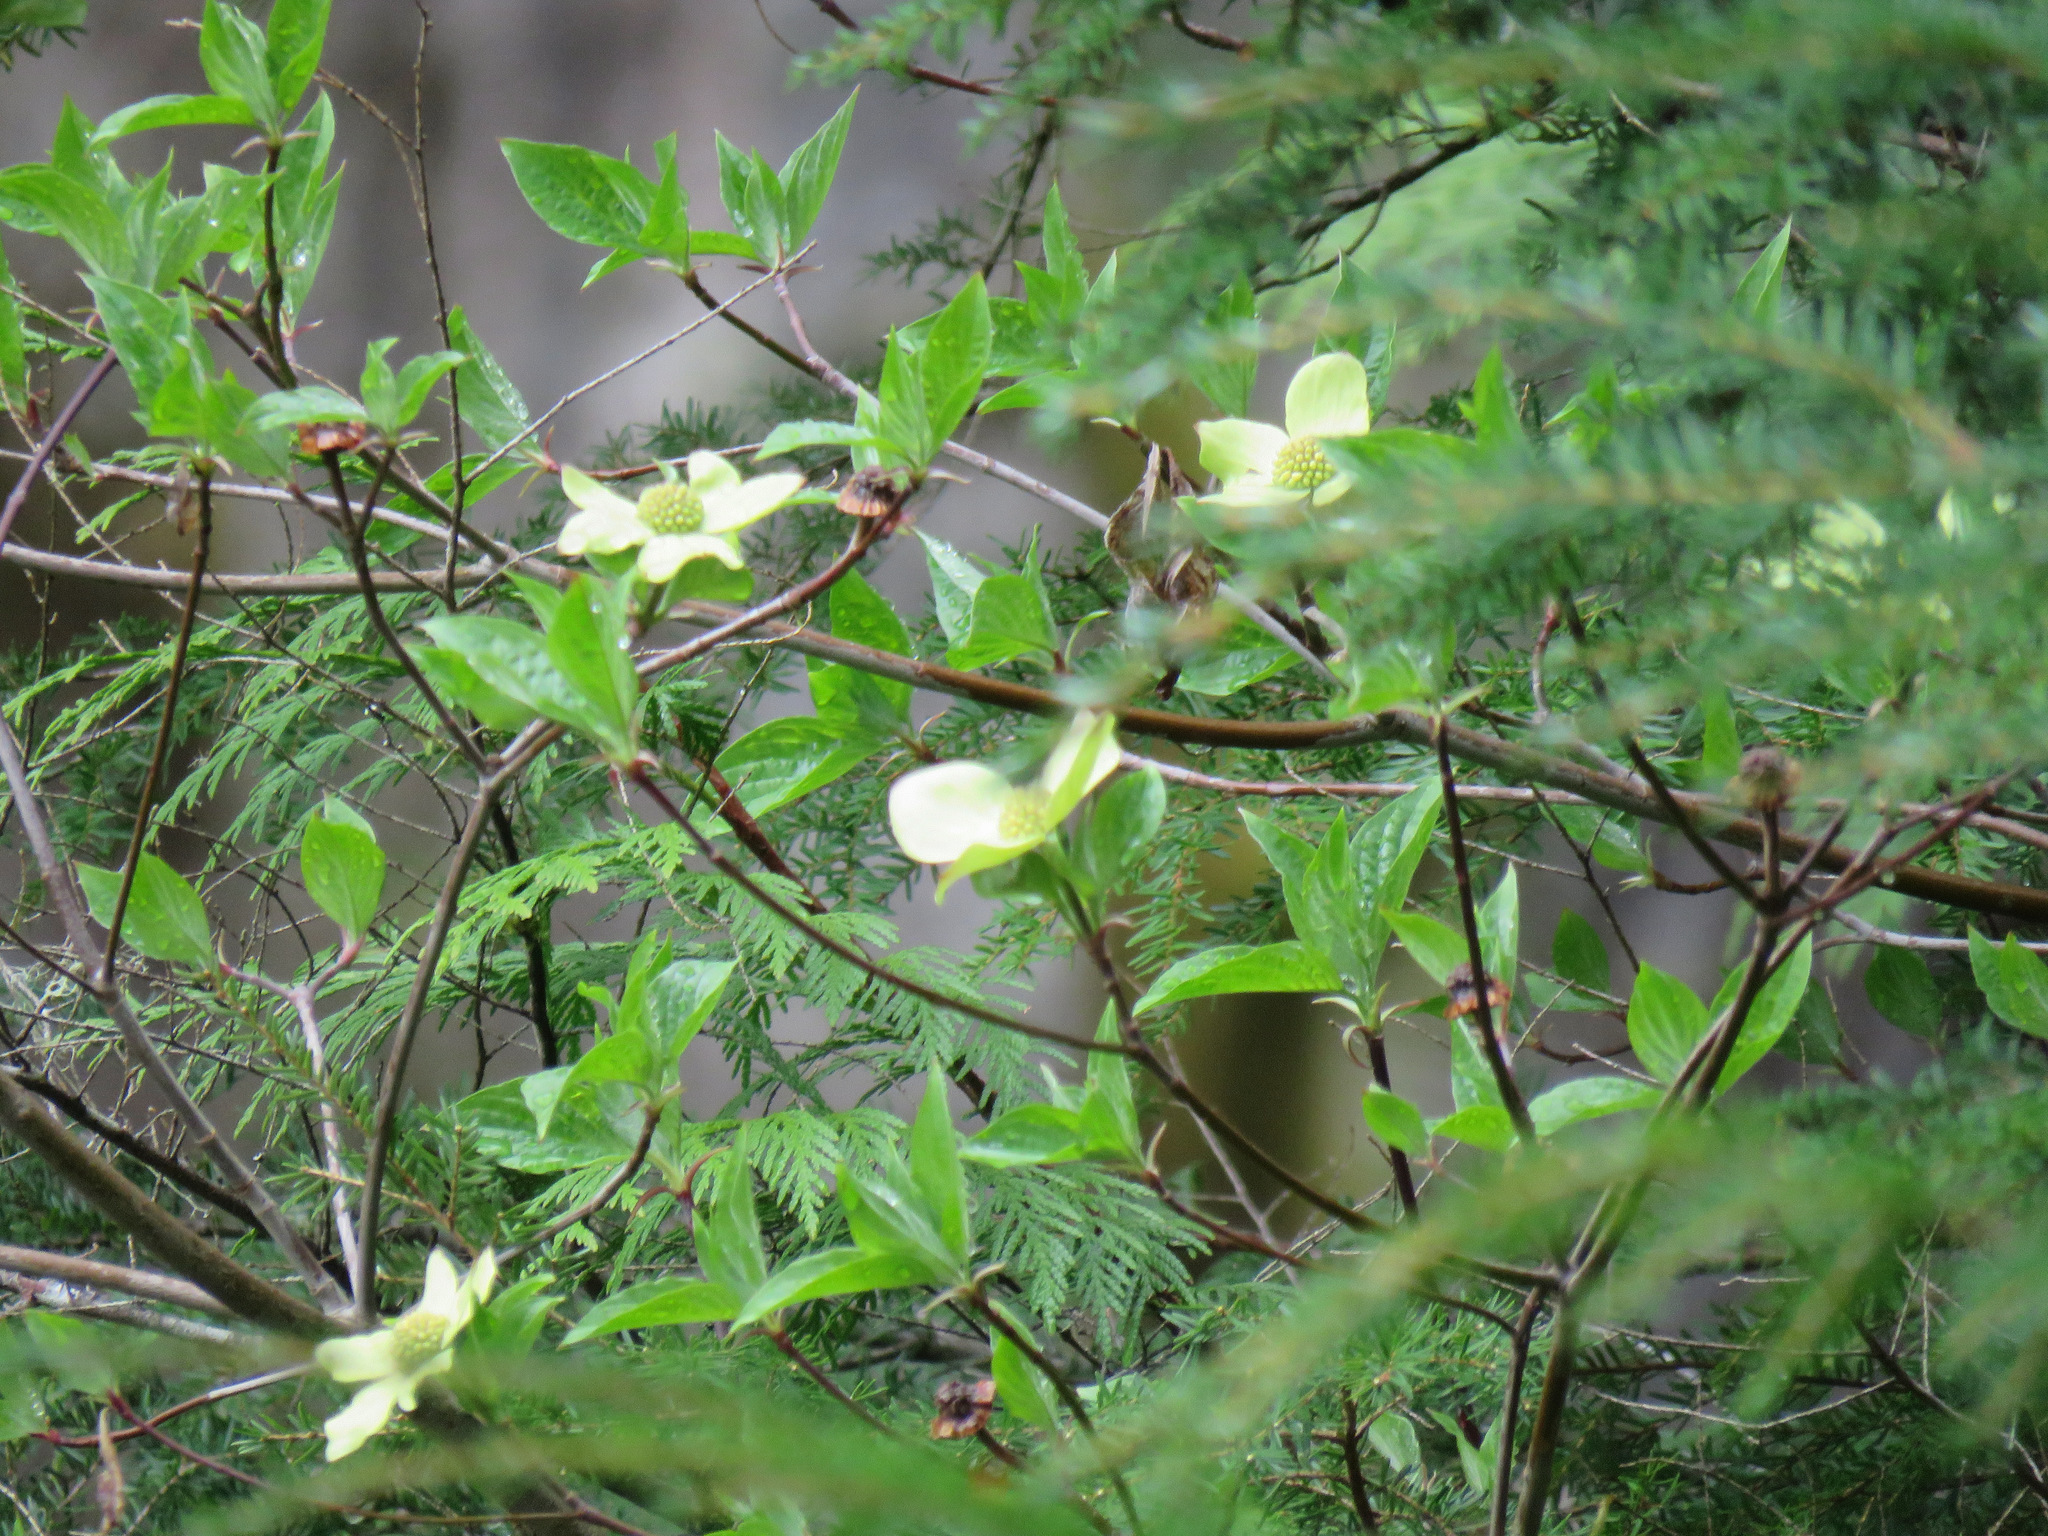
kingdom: Plantae
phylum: Tracheophyta
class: Magnoliopsida
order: Cornales
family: Cornaceae
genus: Cornus
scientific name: Cornus nuttallii
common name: Pacific dogwood
